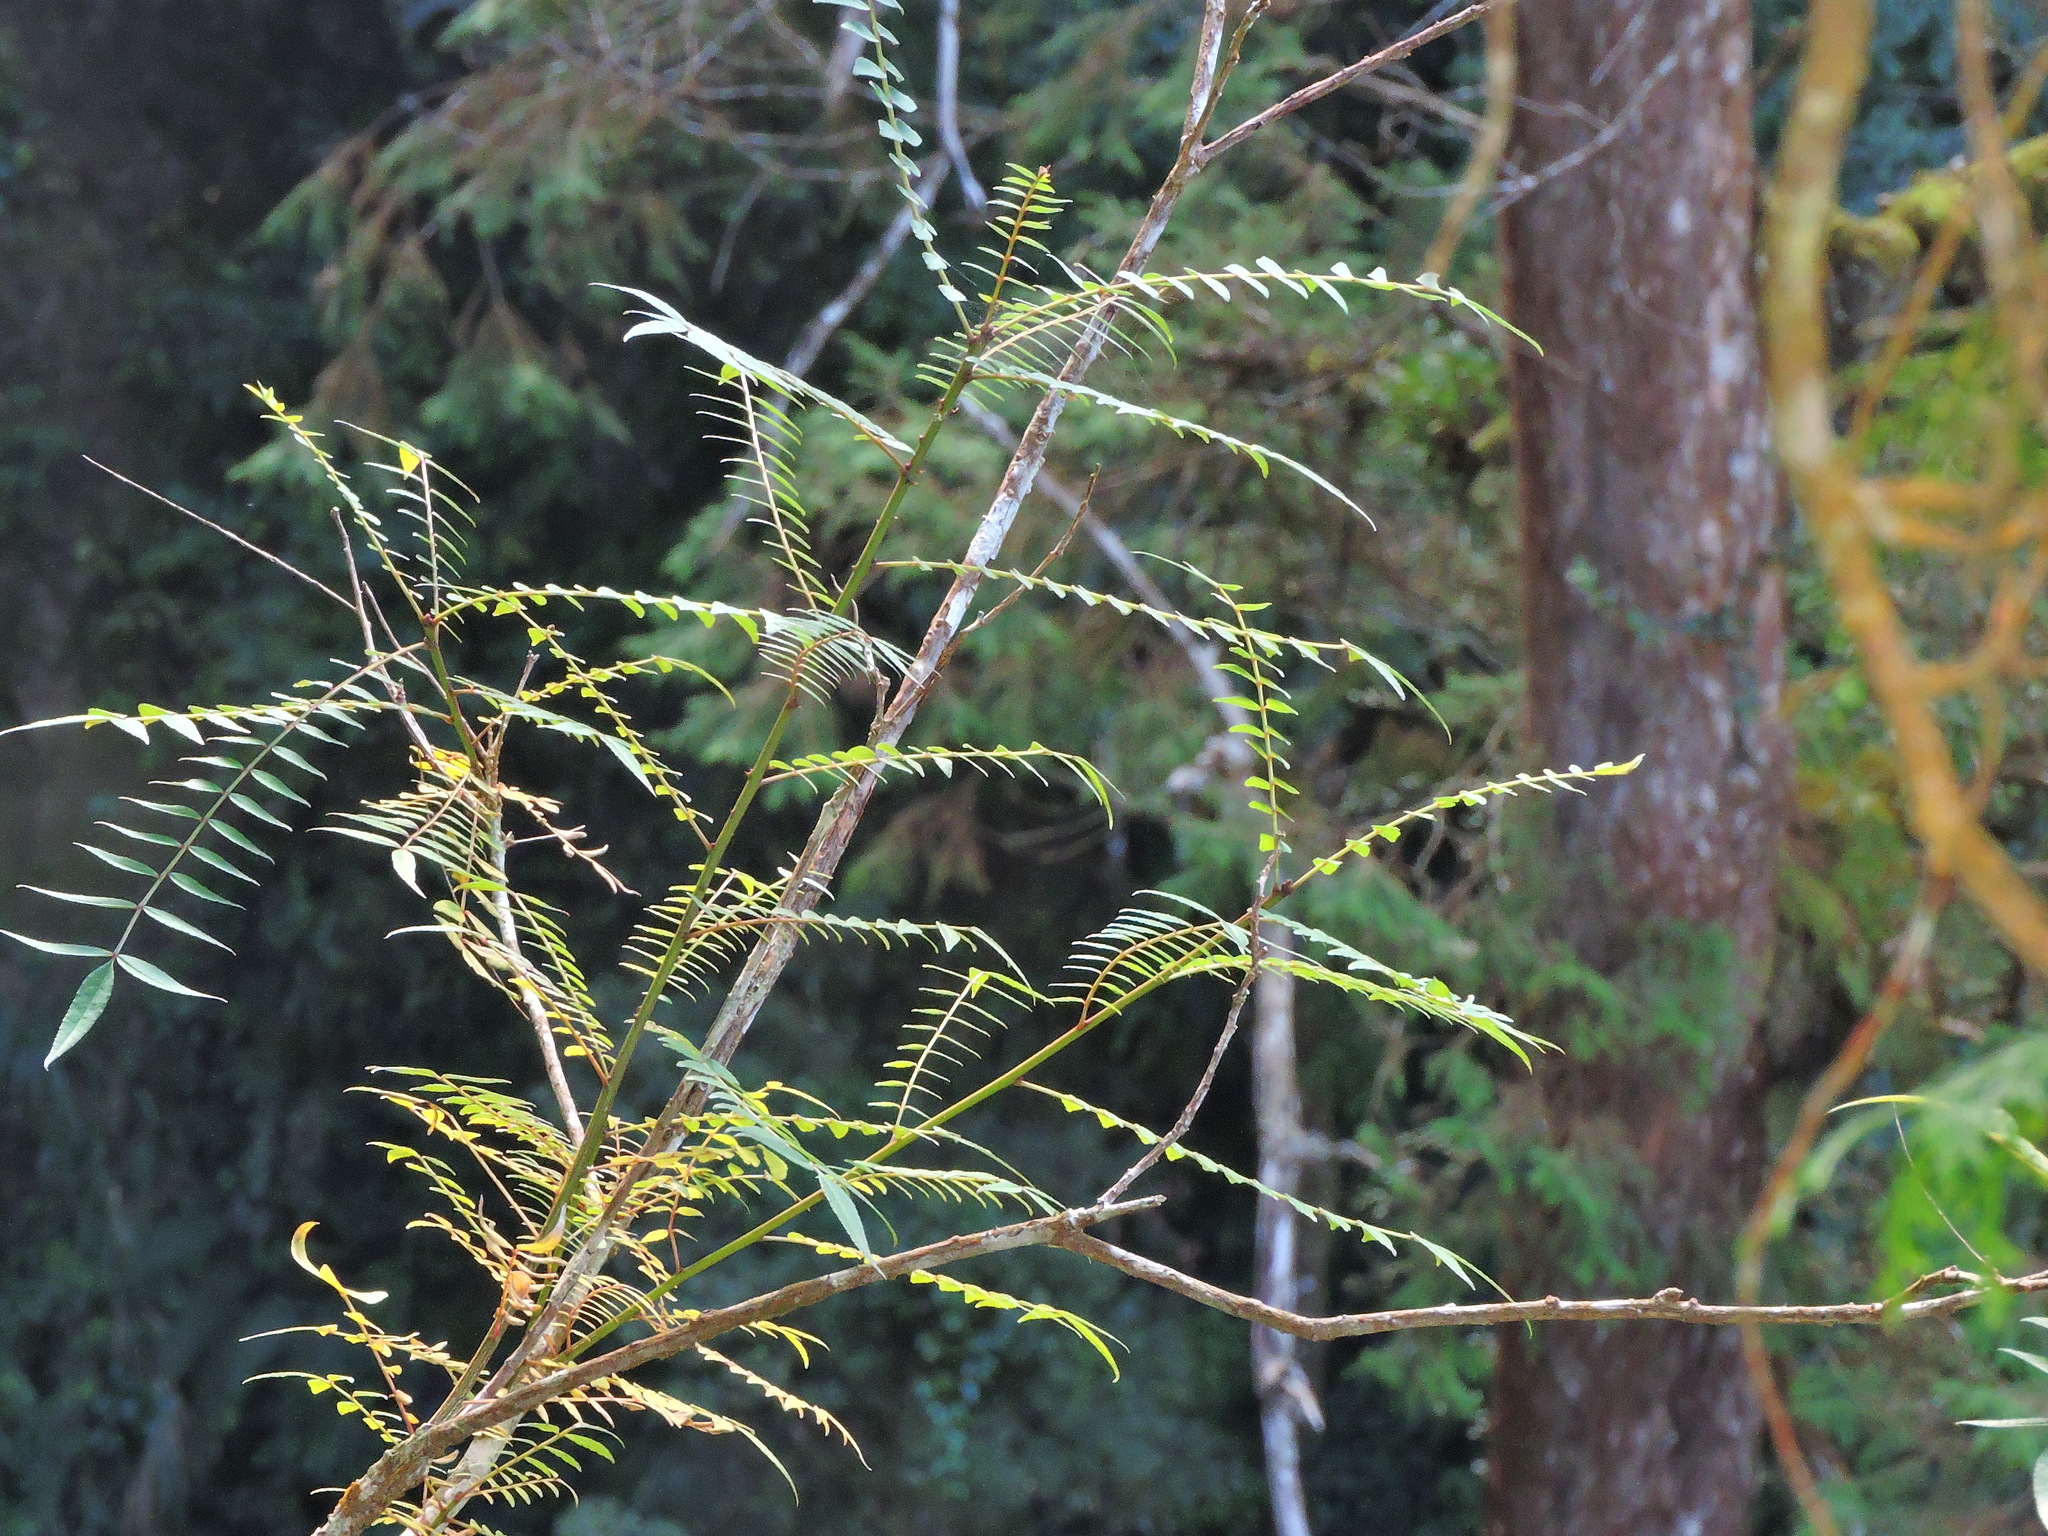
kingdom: Plantae
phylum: Tracheophyta
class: Magnoliopsida
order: Sapindales
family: Rutaceae
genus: Zanthoxylum
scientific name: Zanthoxylum schinifolium
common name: Sichuan-pepper
